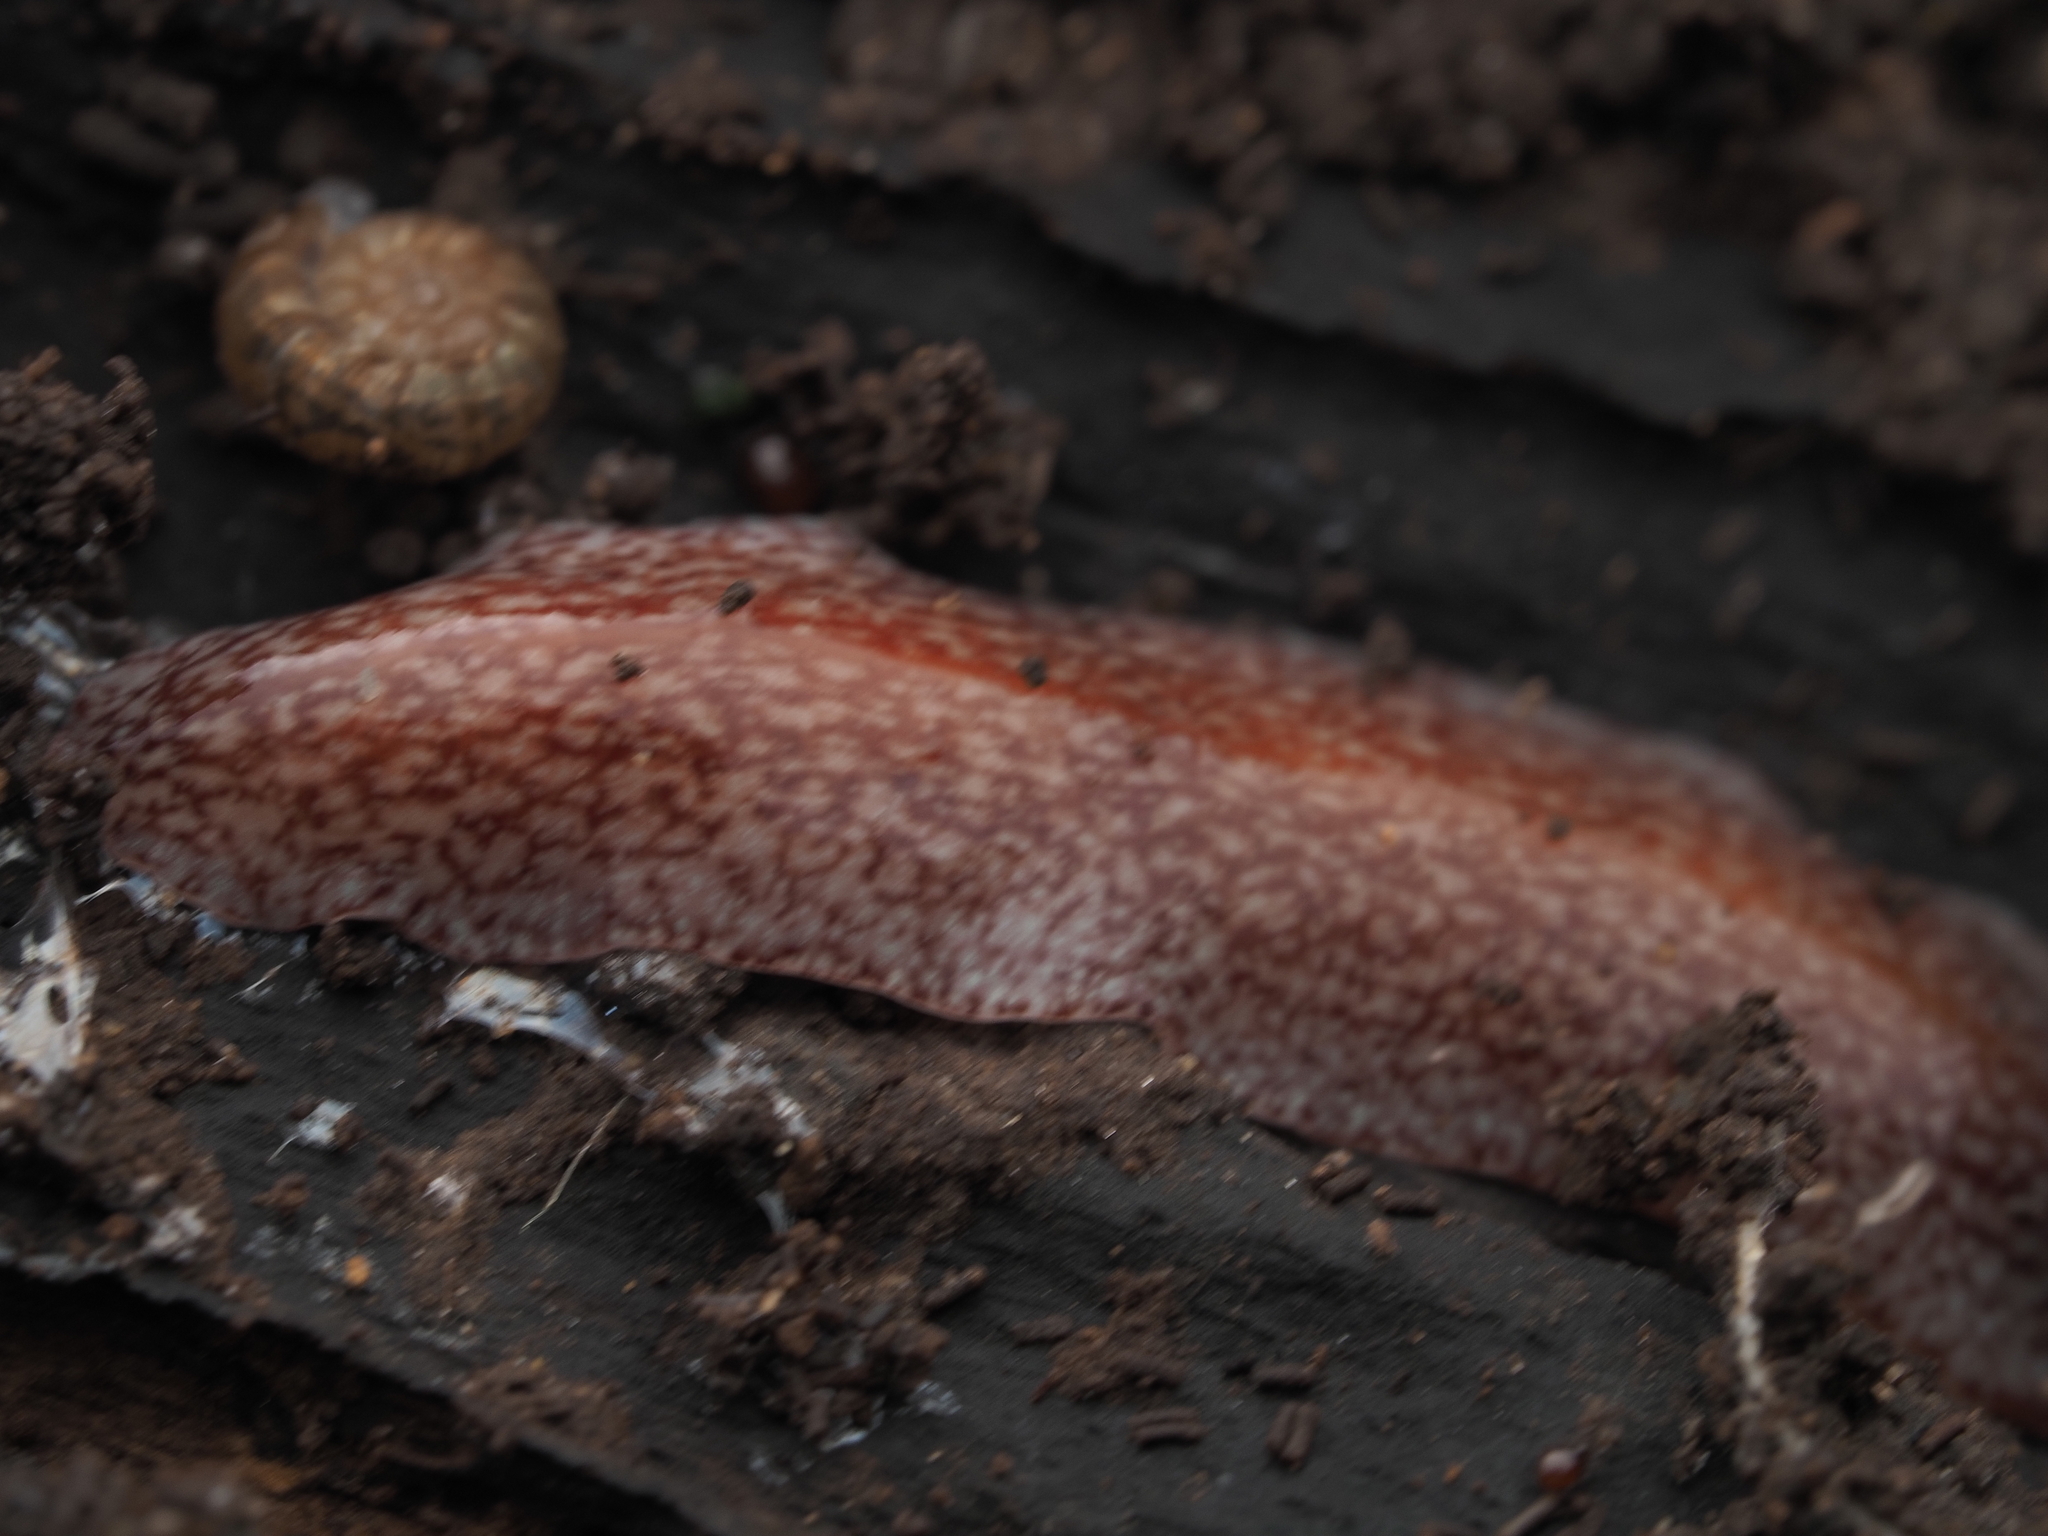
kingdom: Animalia
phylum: Platyhelminthes
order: Tricladida
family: Geoplanidae
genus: Australopacifica
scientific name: Australopacifica spectabilis
